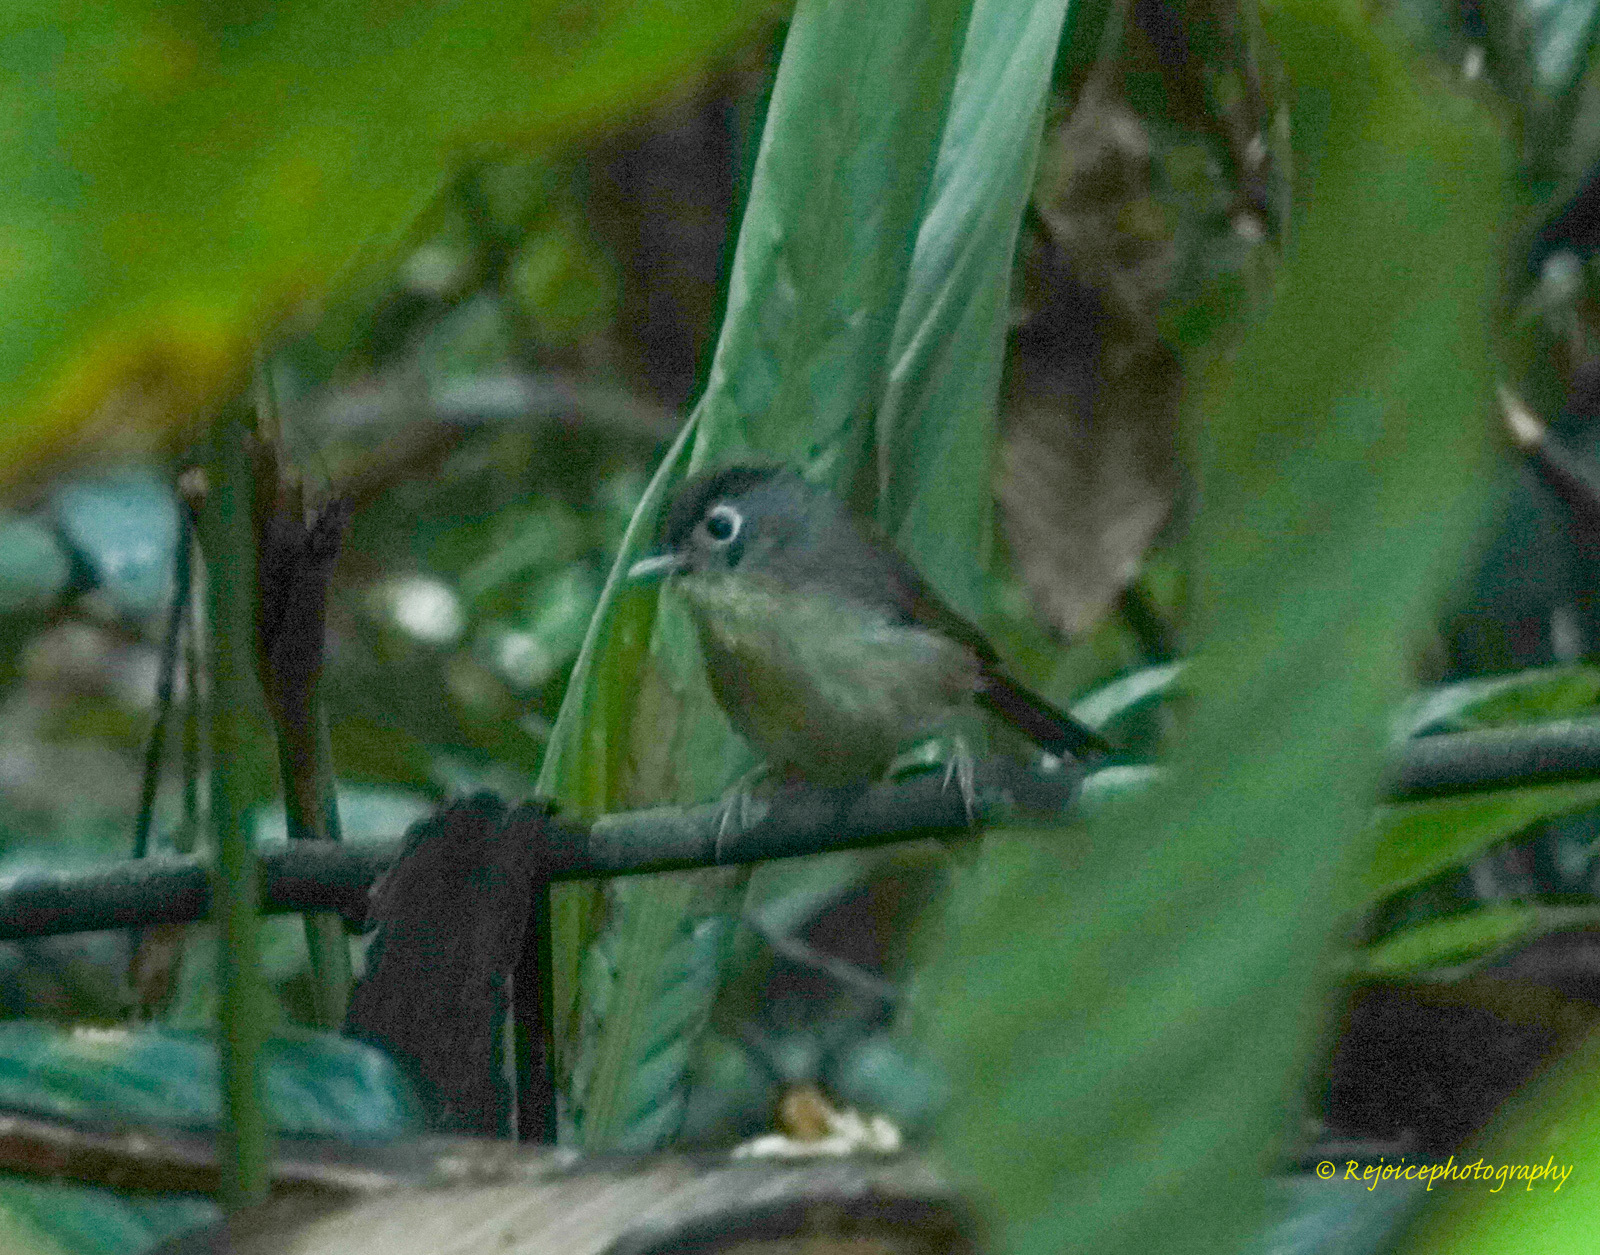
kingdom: Animalia
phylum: Chordata
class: Aves
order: Passeriformes
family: Pellorneidae
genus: Alcippe
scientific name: Alcippe nipalensis
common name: Nepal fulvetta
